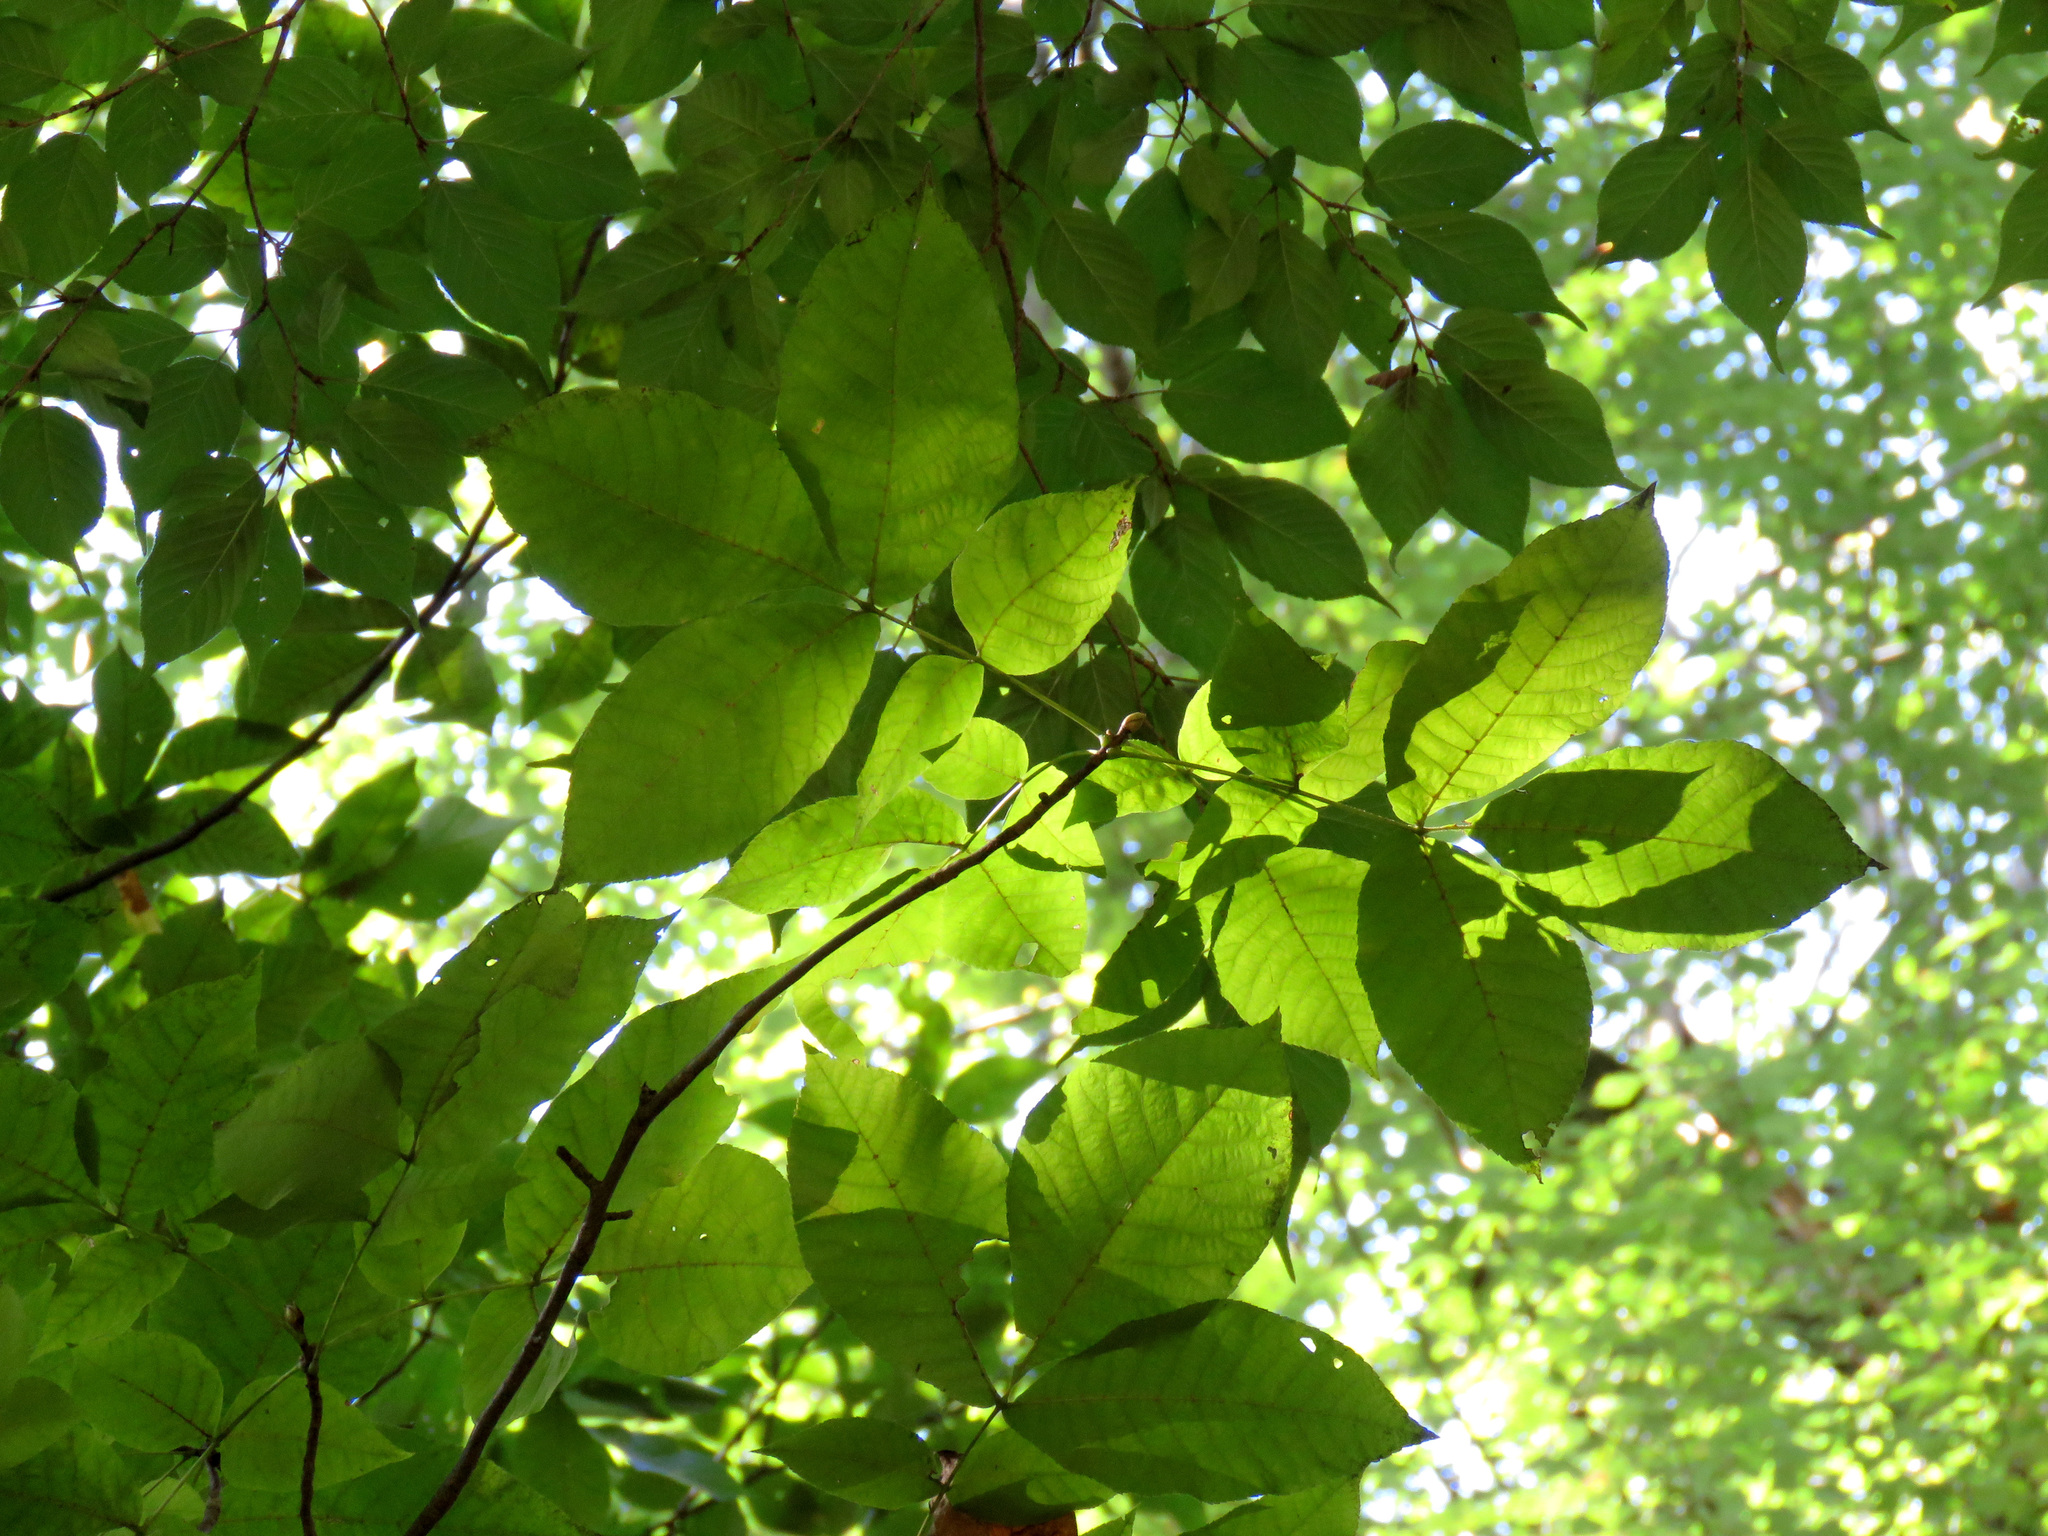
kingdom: Plantae
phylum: Tracheophyta
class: Magnoliopsida
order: Fagales
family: Juglandaceae
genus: Carya
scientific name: Carya glabra
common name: Pignut hickory
